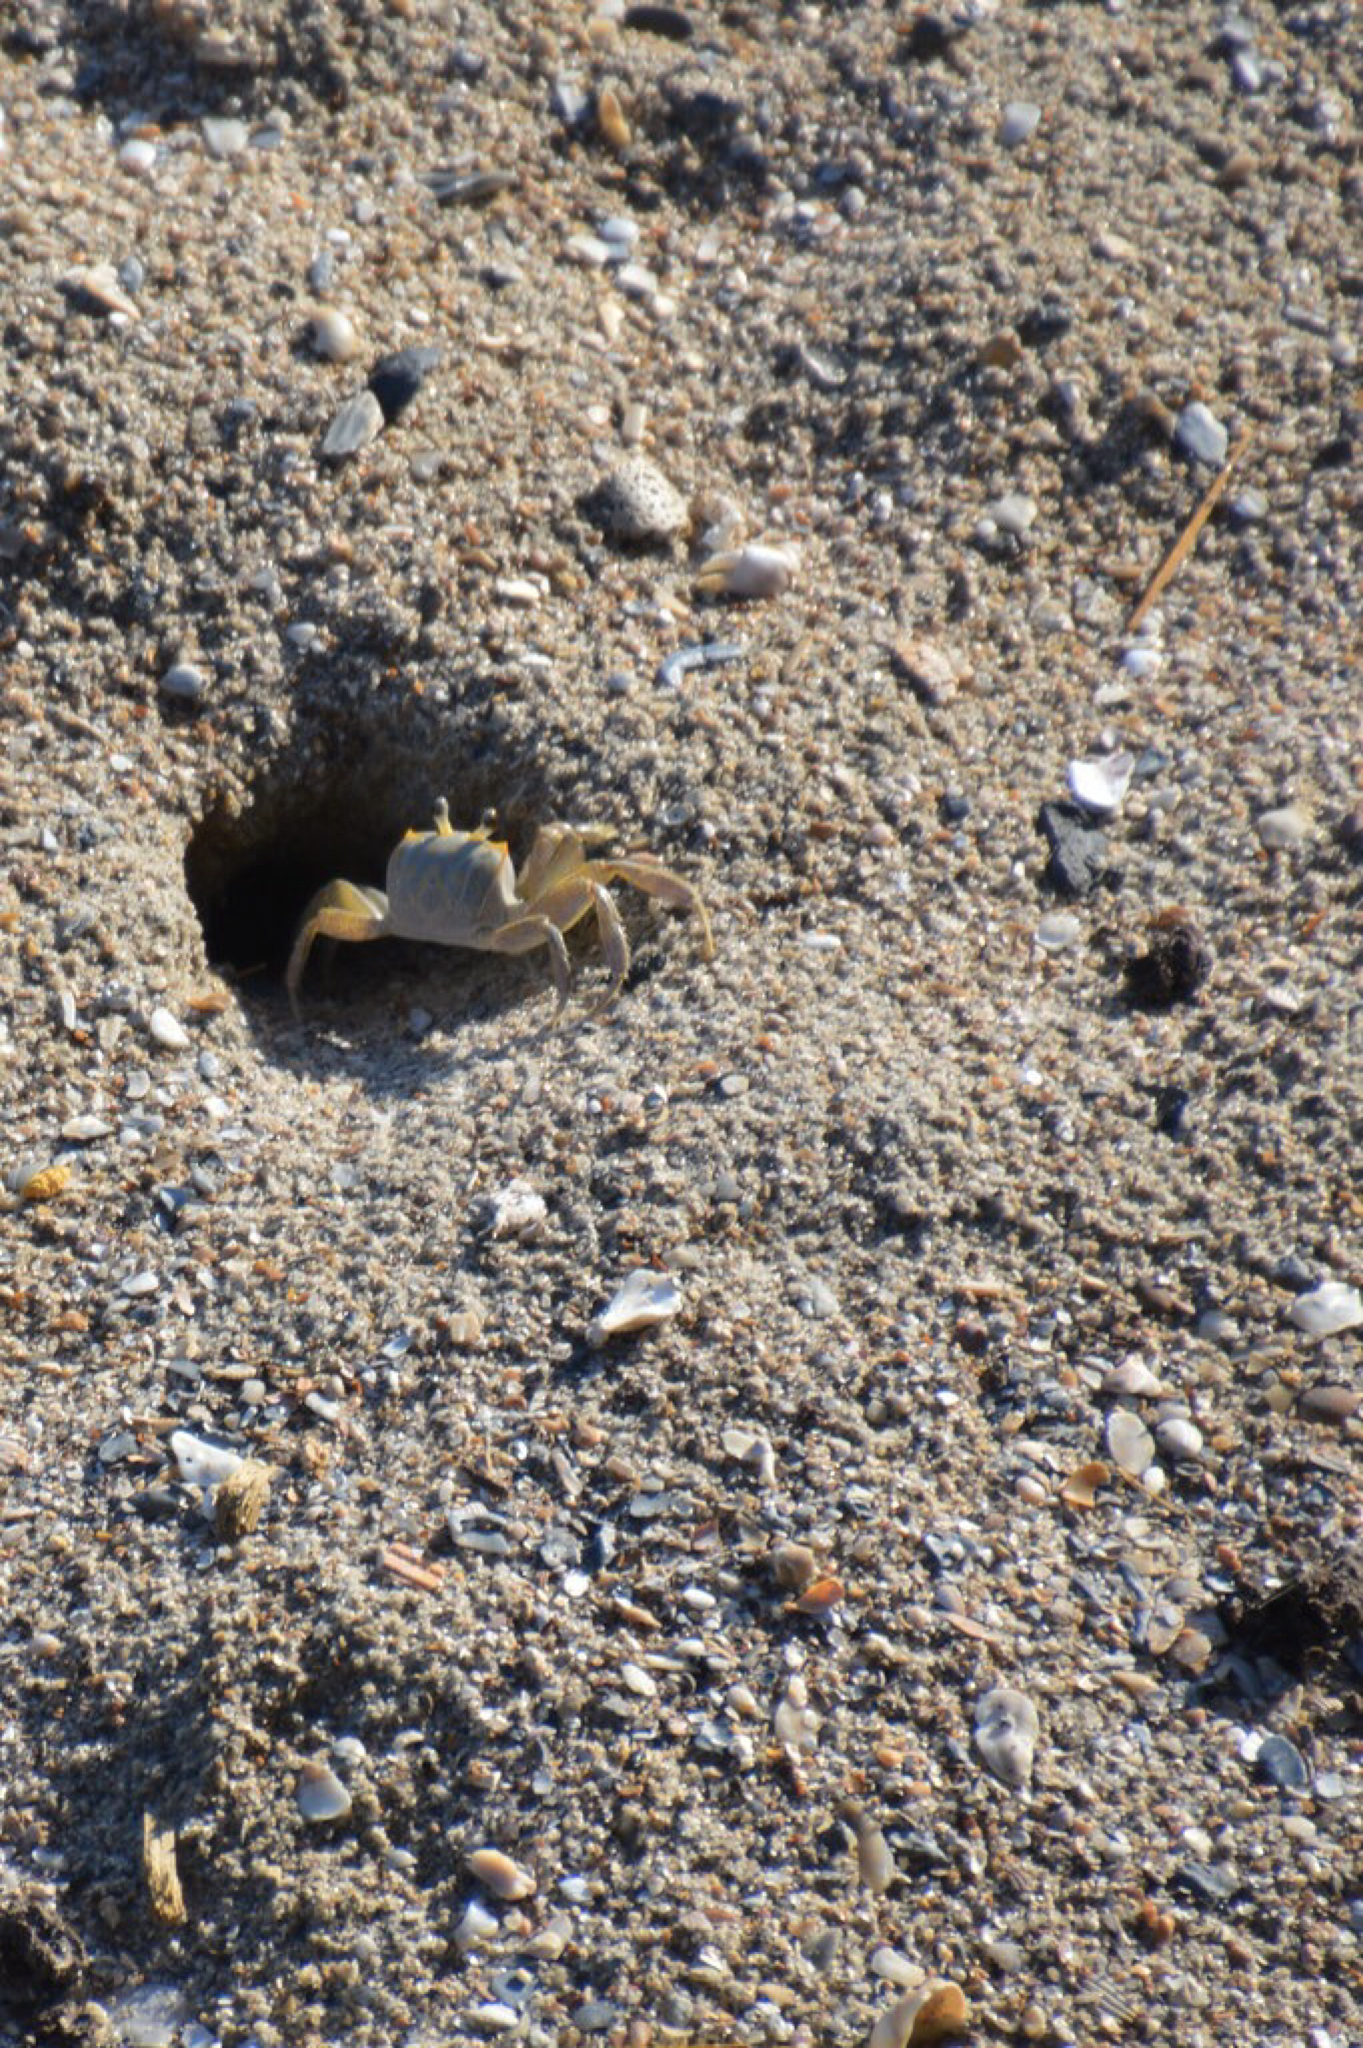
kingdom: Animalia
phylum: Arthropoda
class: Malacostraca
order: Decapoda
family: Ocypodidae
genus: Ocypode
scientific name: Ocypode quadrata
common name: Ghost crab
